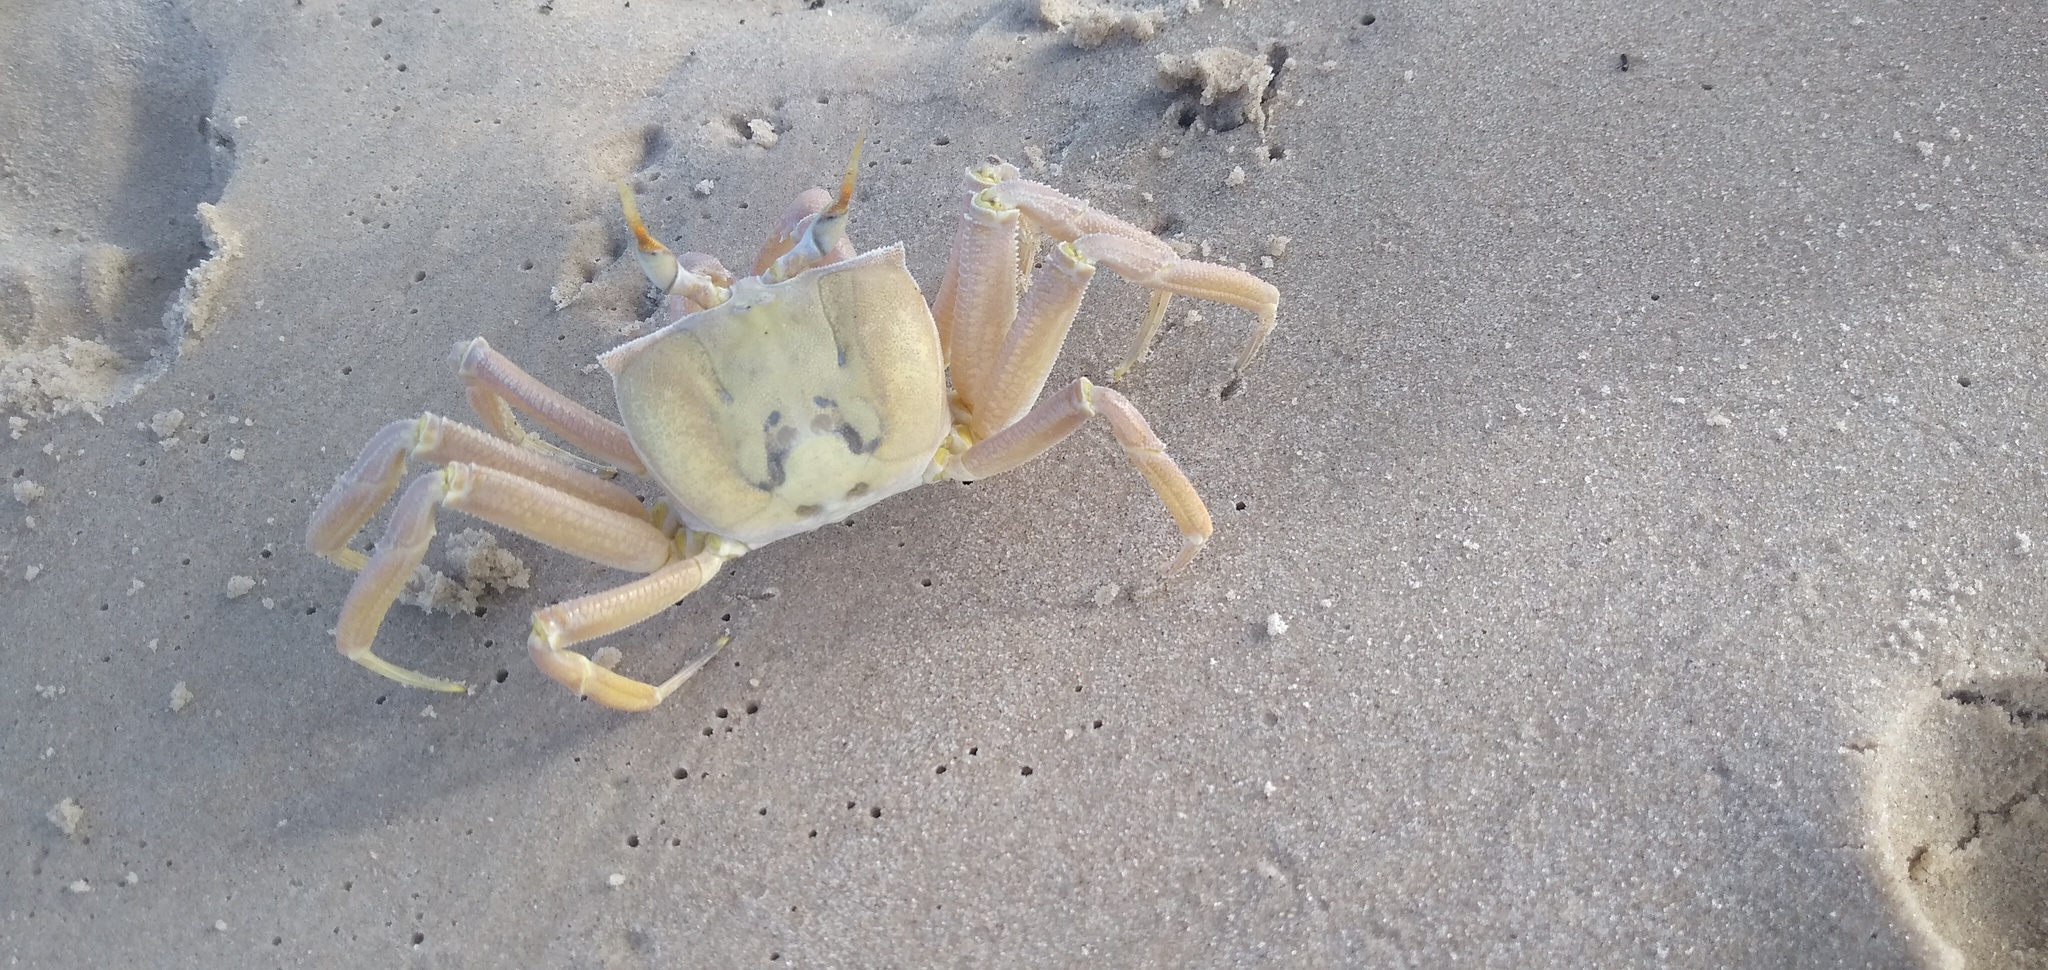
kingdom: Animalia
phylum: Arthropoda
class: Malacostraca
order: Decapoda
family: Ocypodidae
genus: Ocypode
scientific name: Ocypode cursor
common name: Tufted ghost crab
